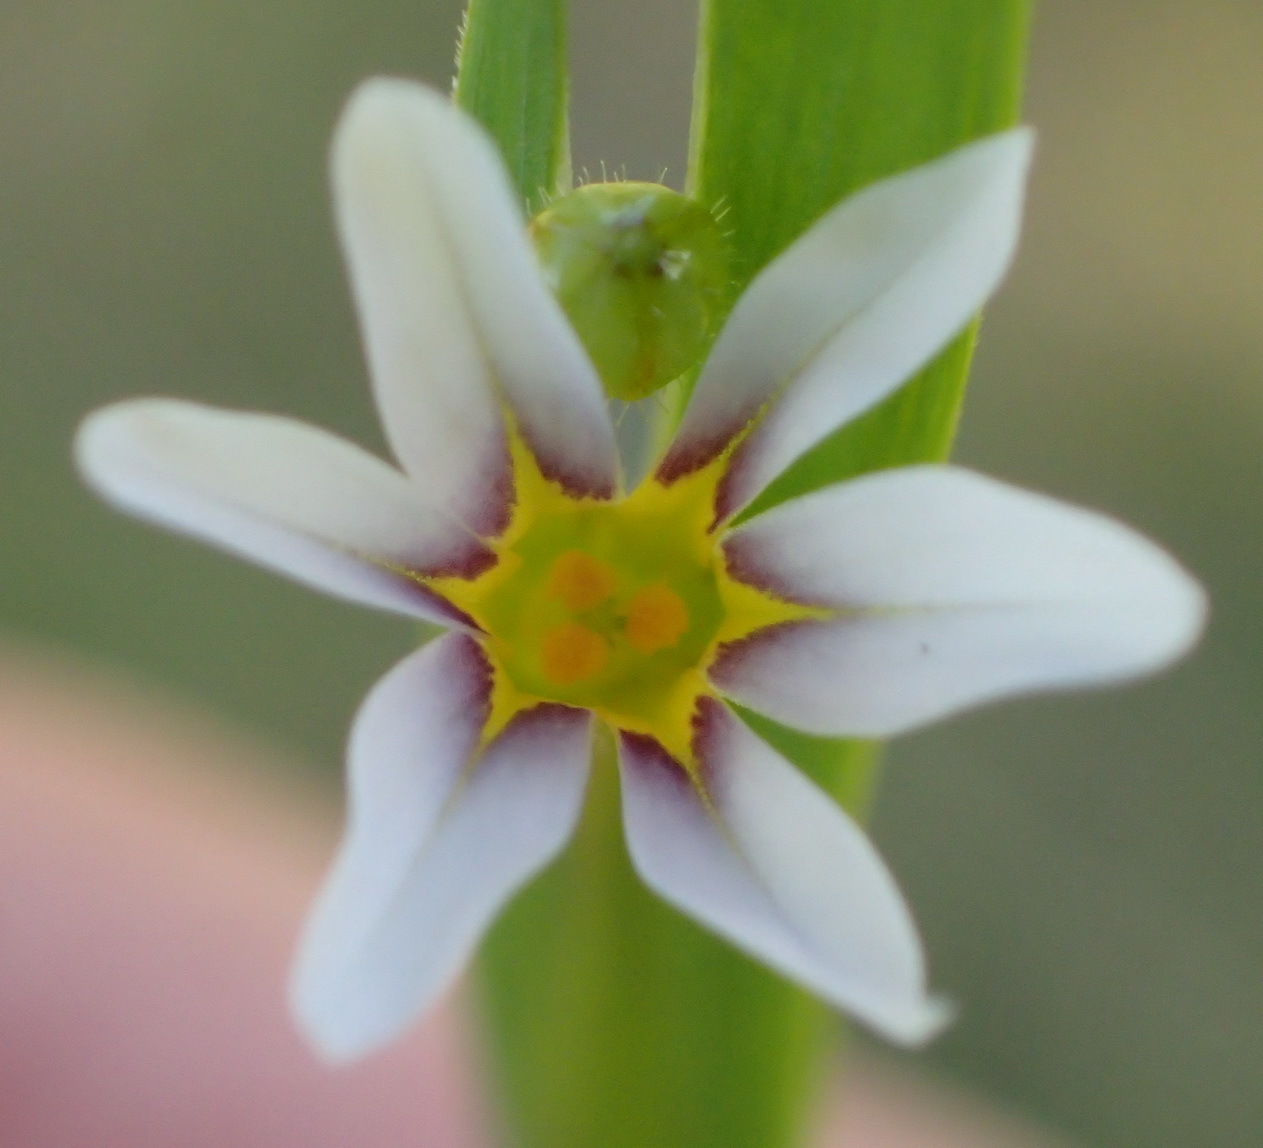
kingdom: Plantae
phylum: Tracheophyta
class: Liliopsida
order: Asparagales
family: Iridaceae
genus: Sisyrinchium
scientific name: Sisyrinchium micranthum
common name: Bermuda pigroot
